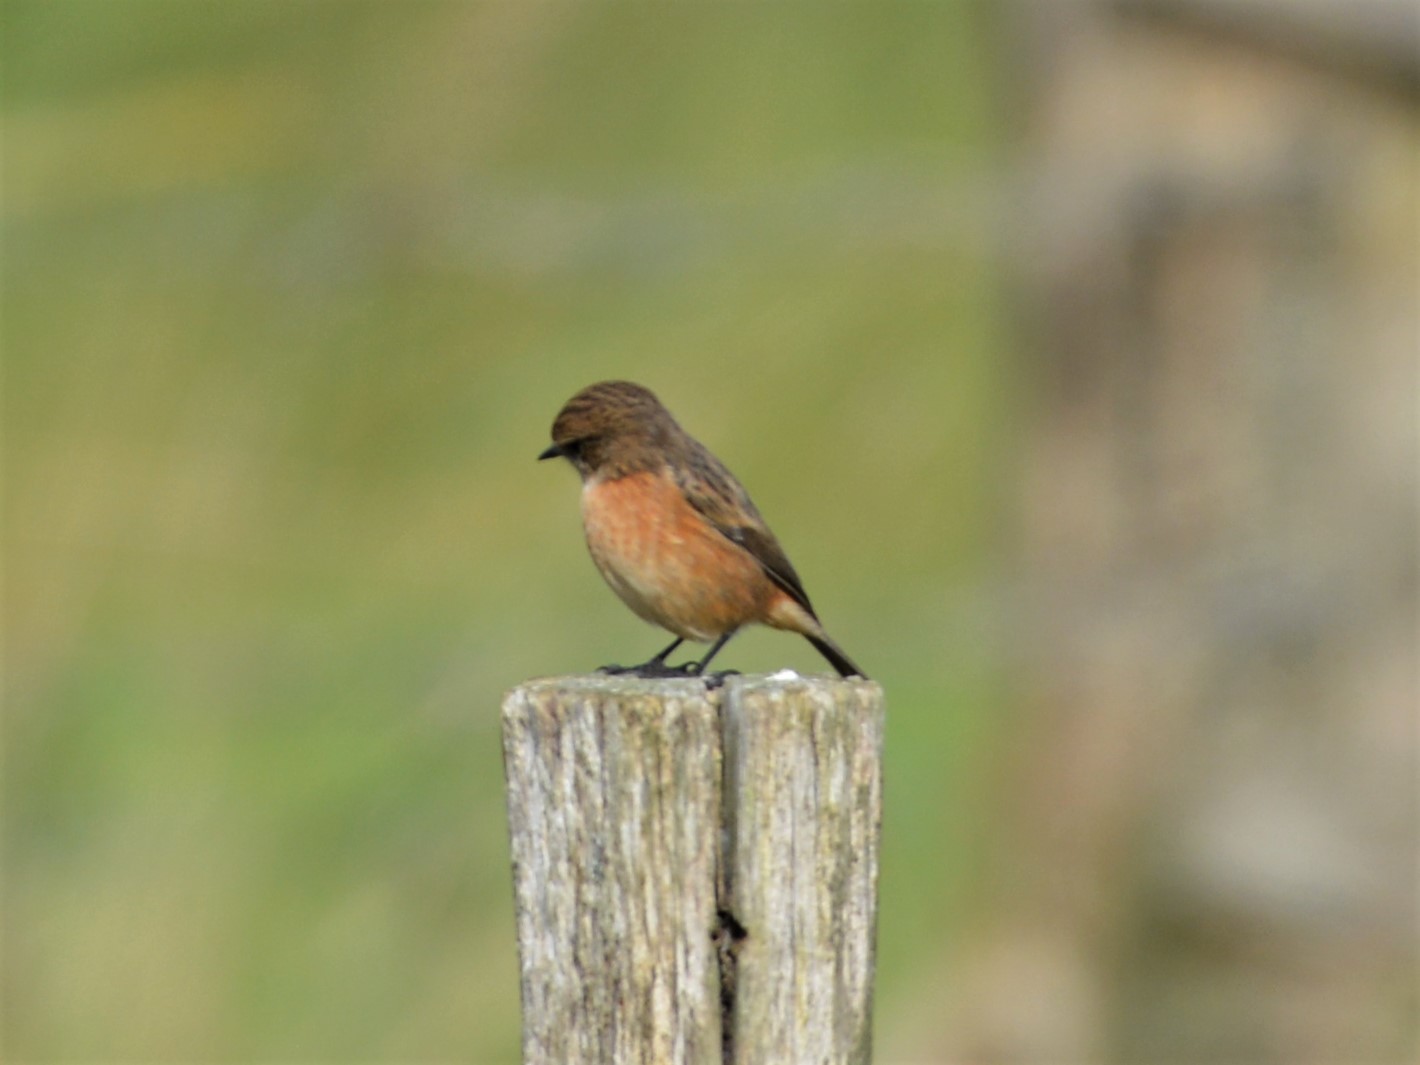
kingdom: Animalia
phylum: Chordata
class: Aves
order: Passeriformes
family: Muscicapidae
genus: Saxicola
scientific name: Saxicola rubicola
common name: European stonechat
